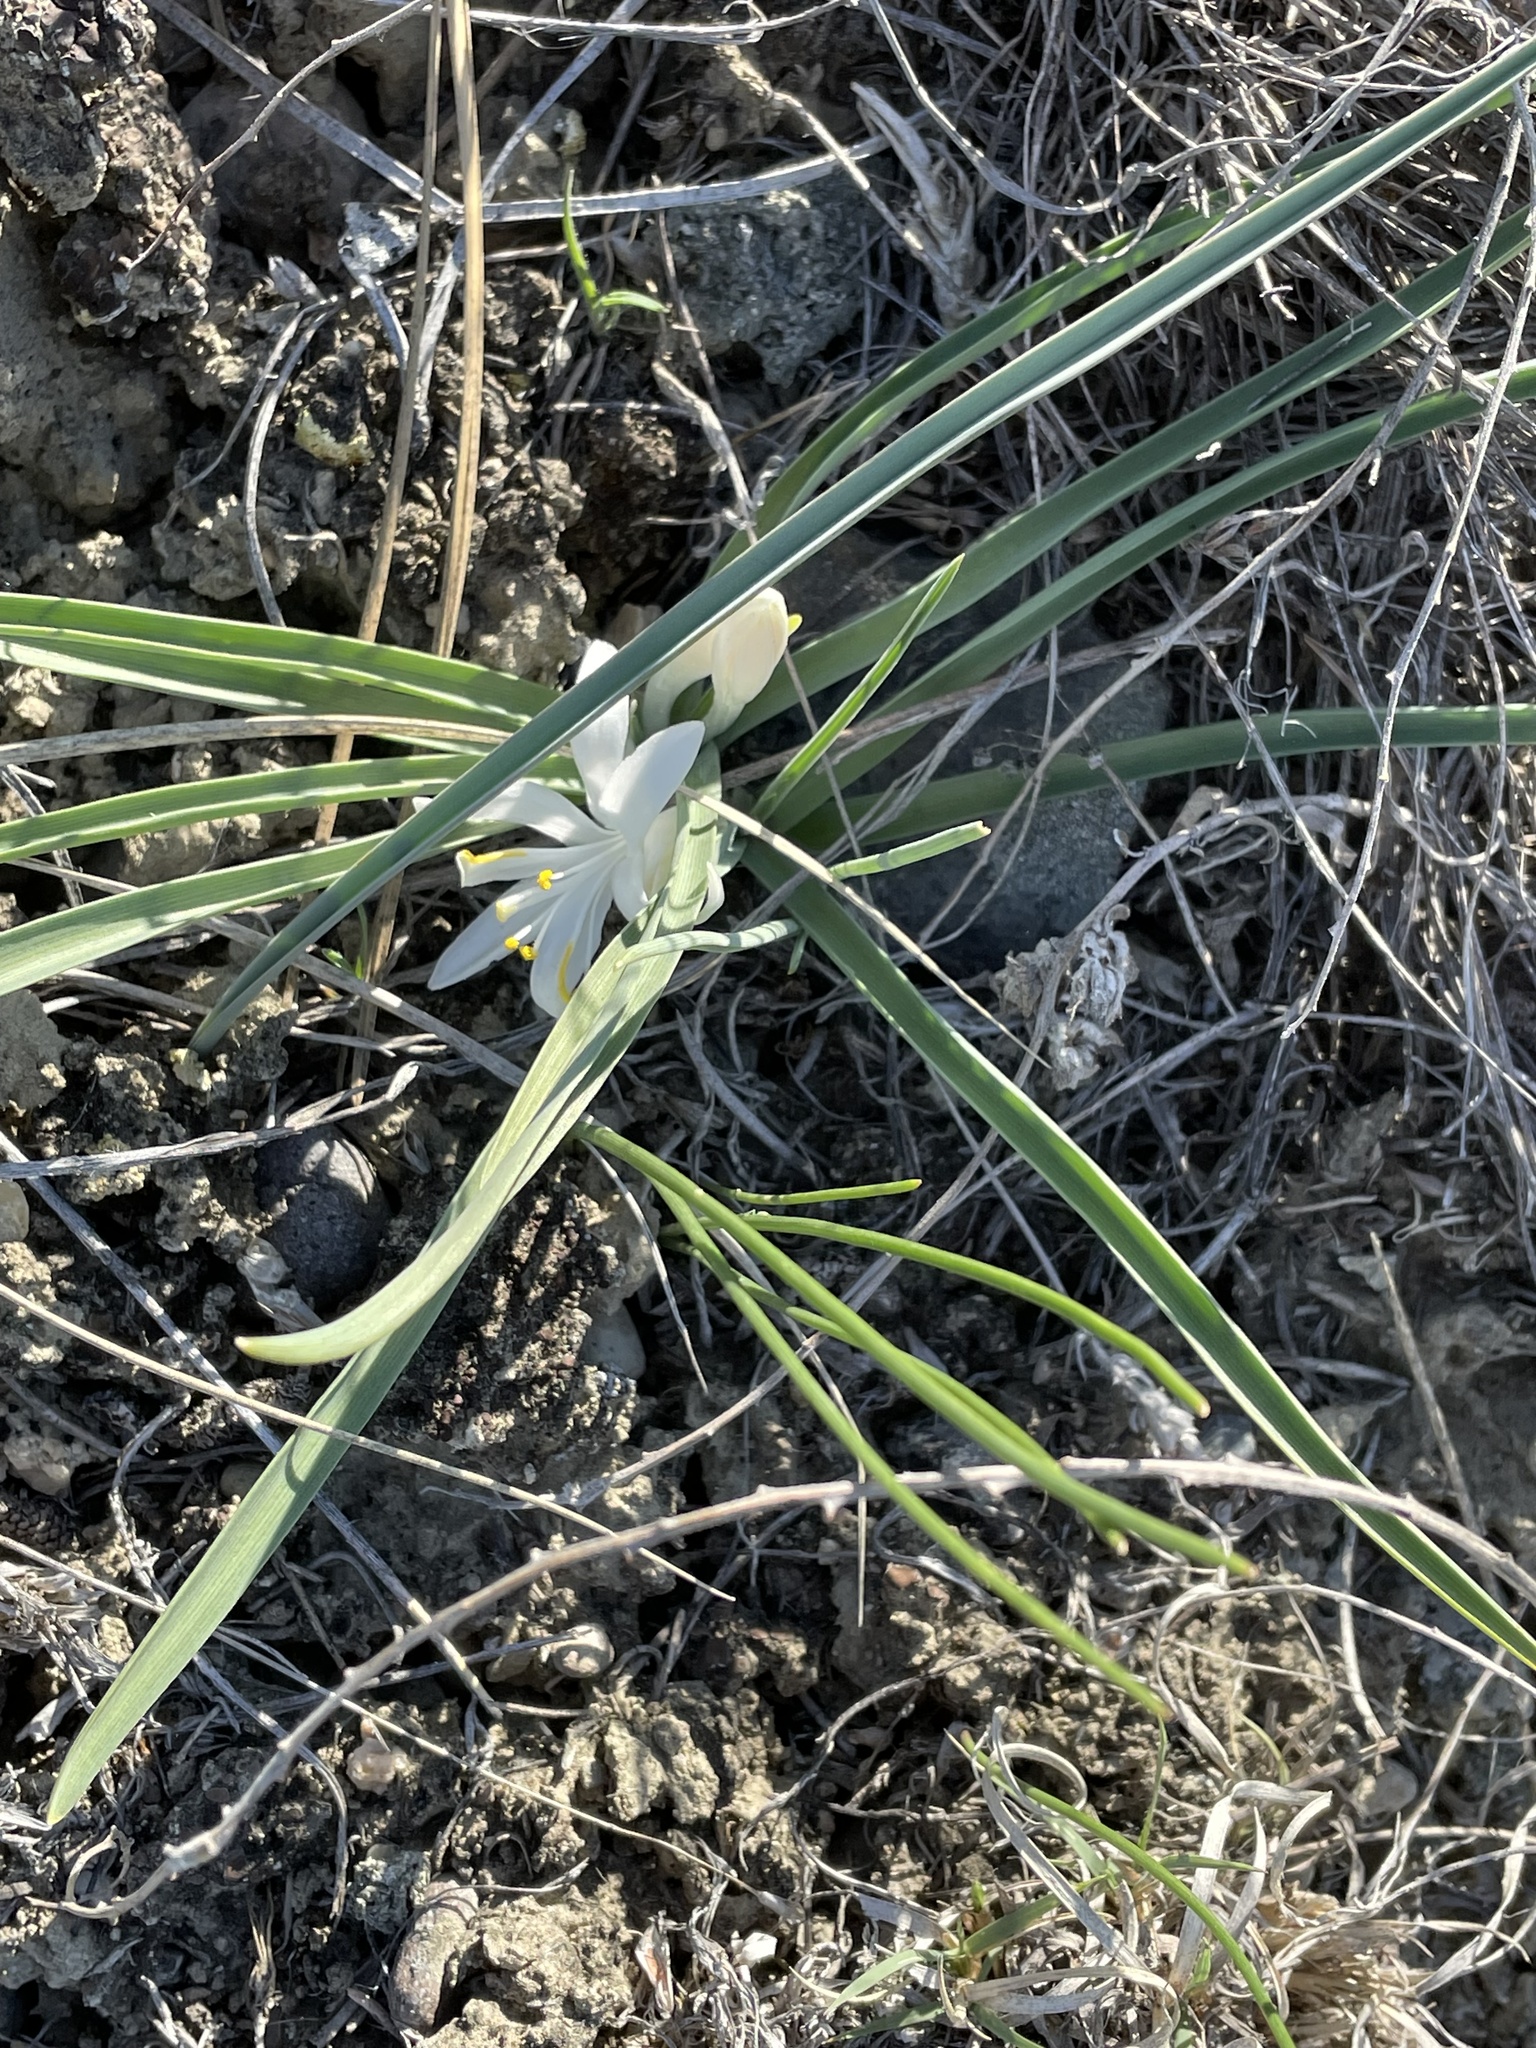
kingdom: Plantae
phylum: Tracheophyta
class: Liliopsida
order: Asparagales
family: Asparagaceae
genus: Leucocrinum
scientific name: Leucocrinum montanum
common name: Mountain-lily
